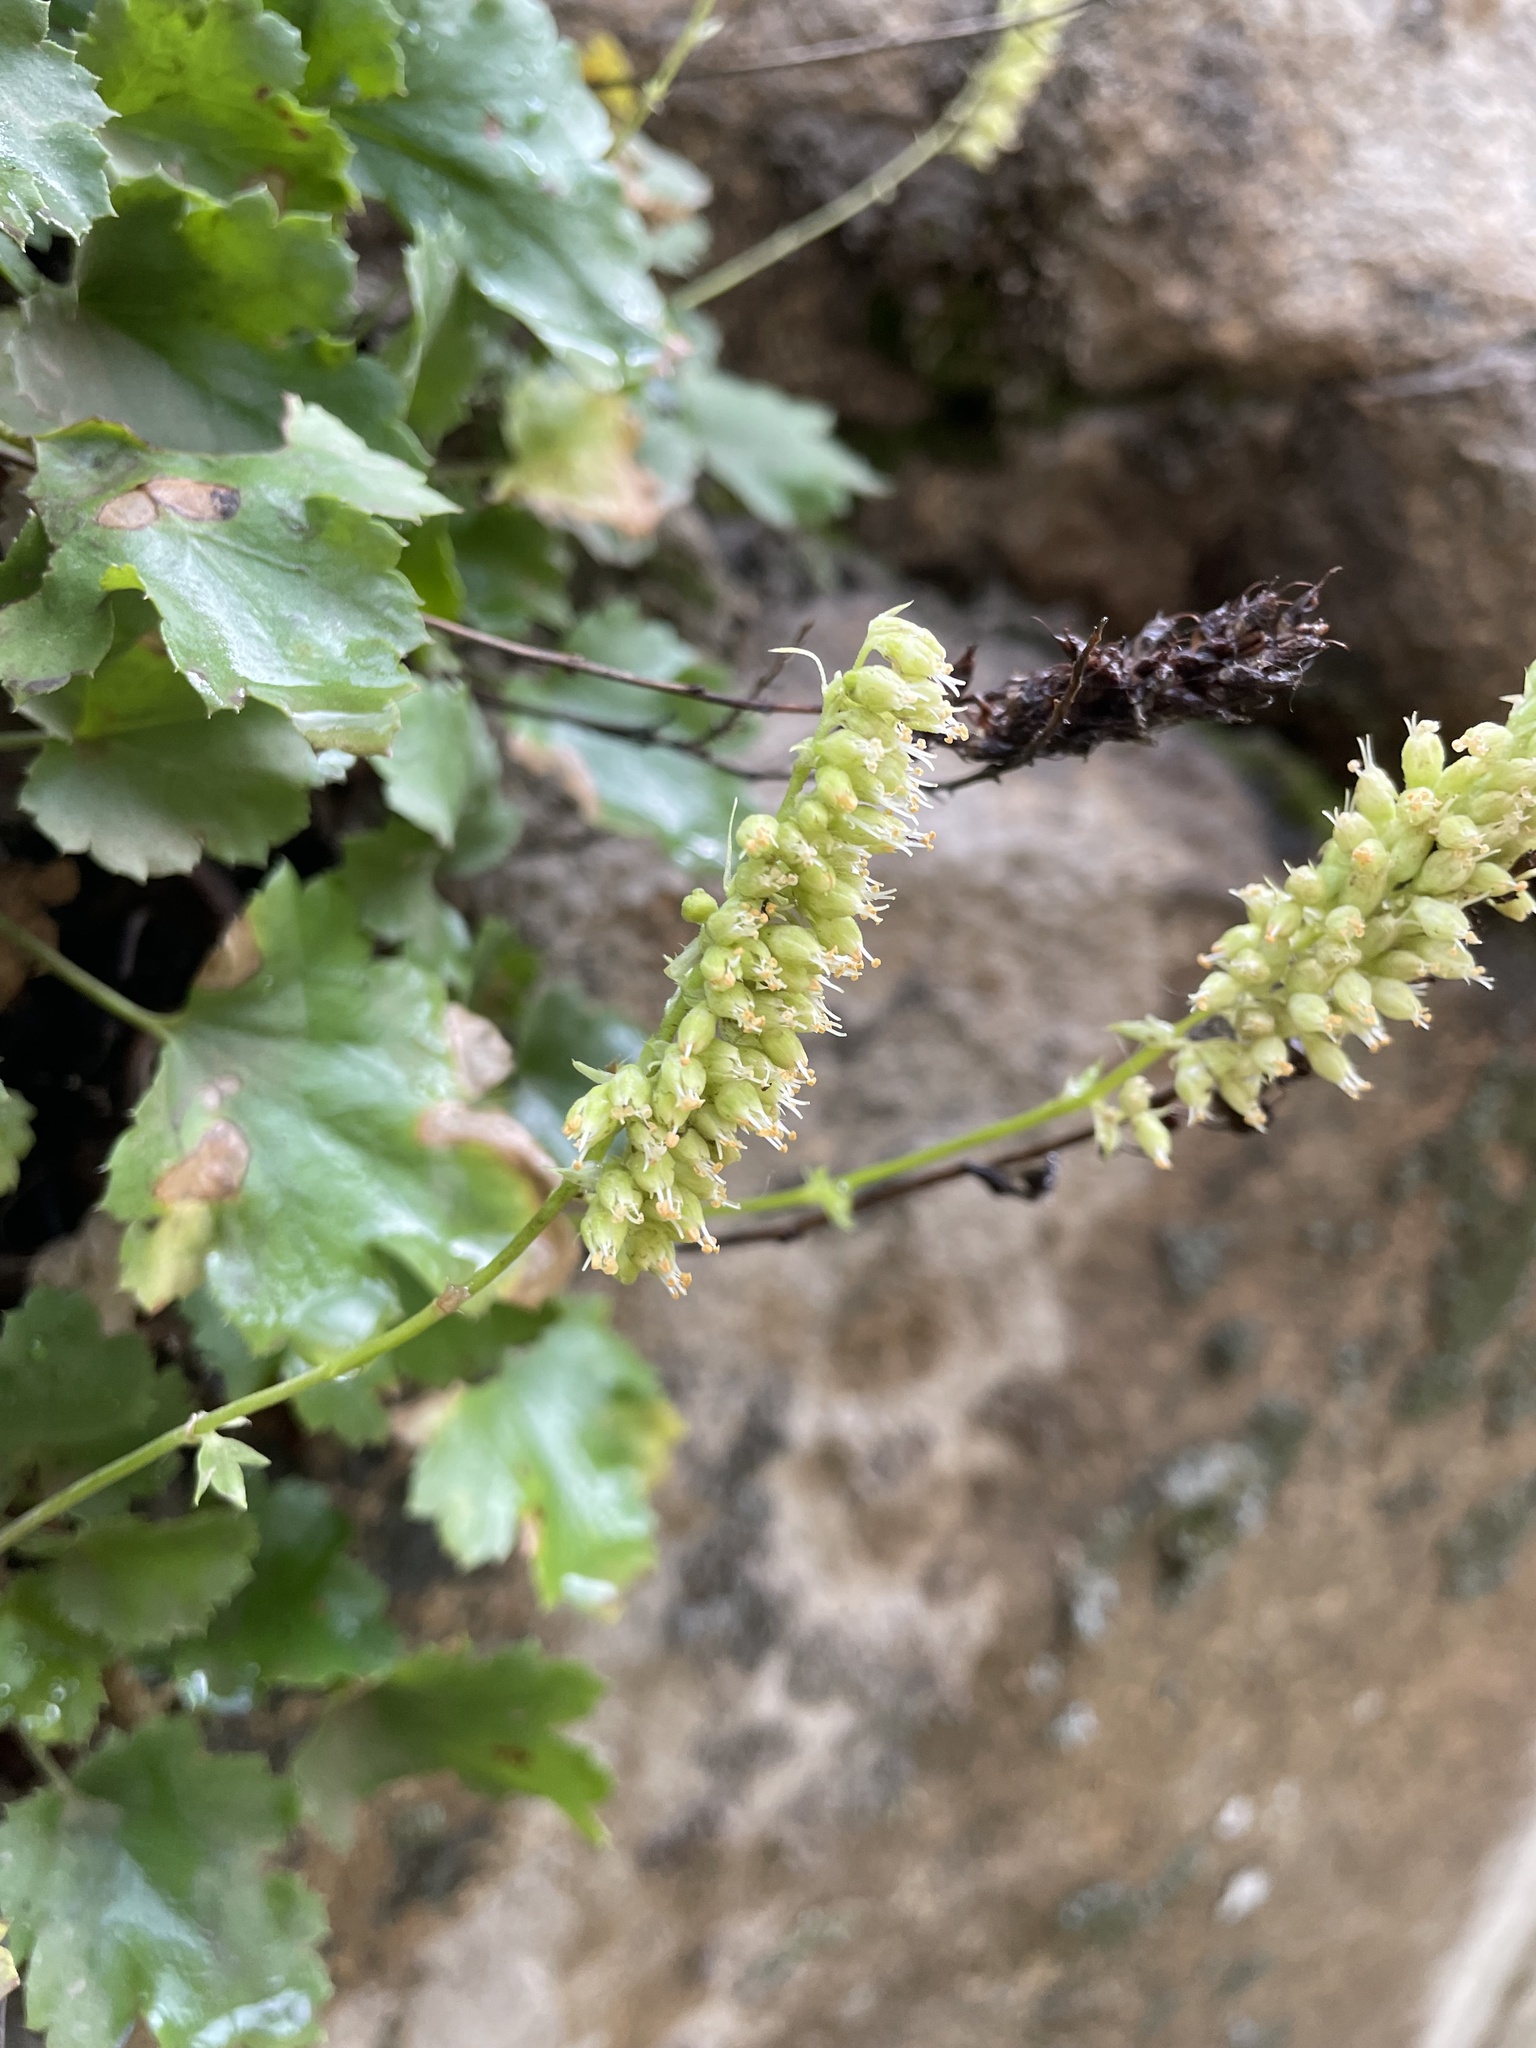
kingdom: Plantae
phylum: Tracheophyta
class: Magnoliopsida
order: Saxifragales
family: Saxifragaceae
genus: Heuchera
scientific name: Heuchera bracteata
